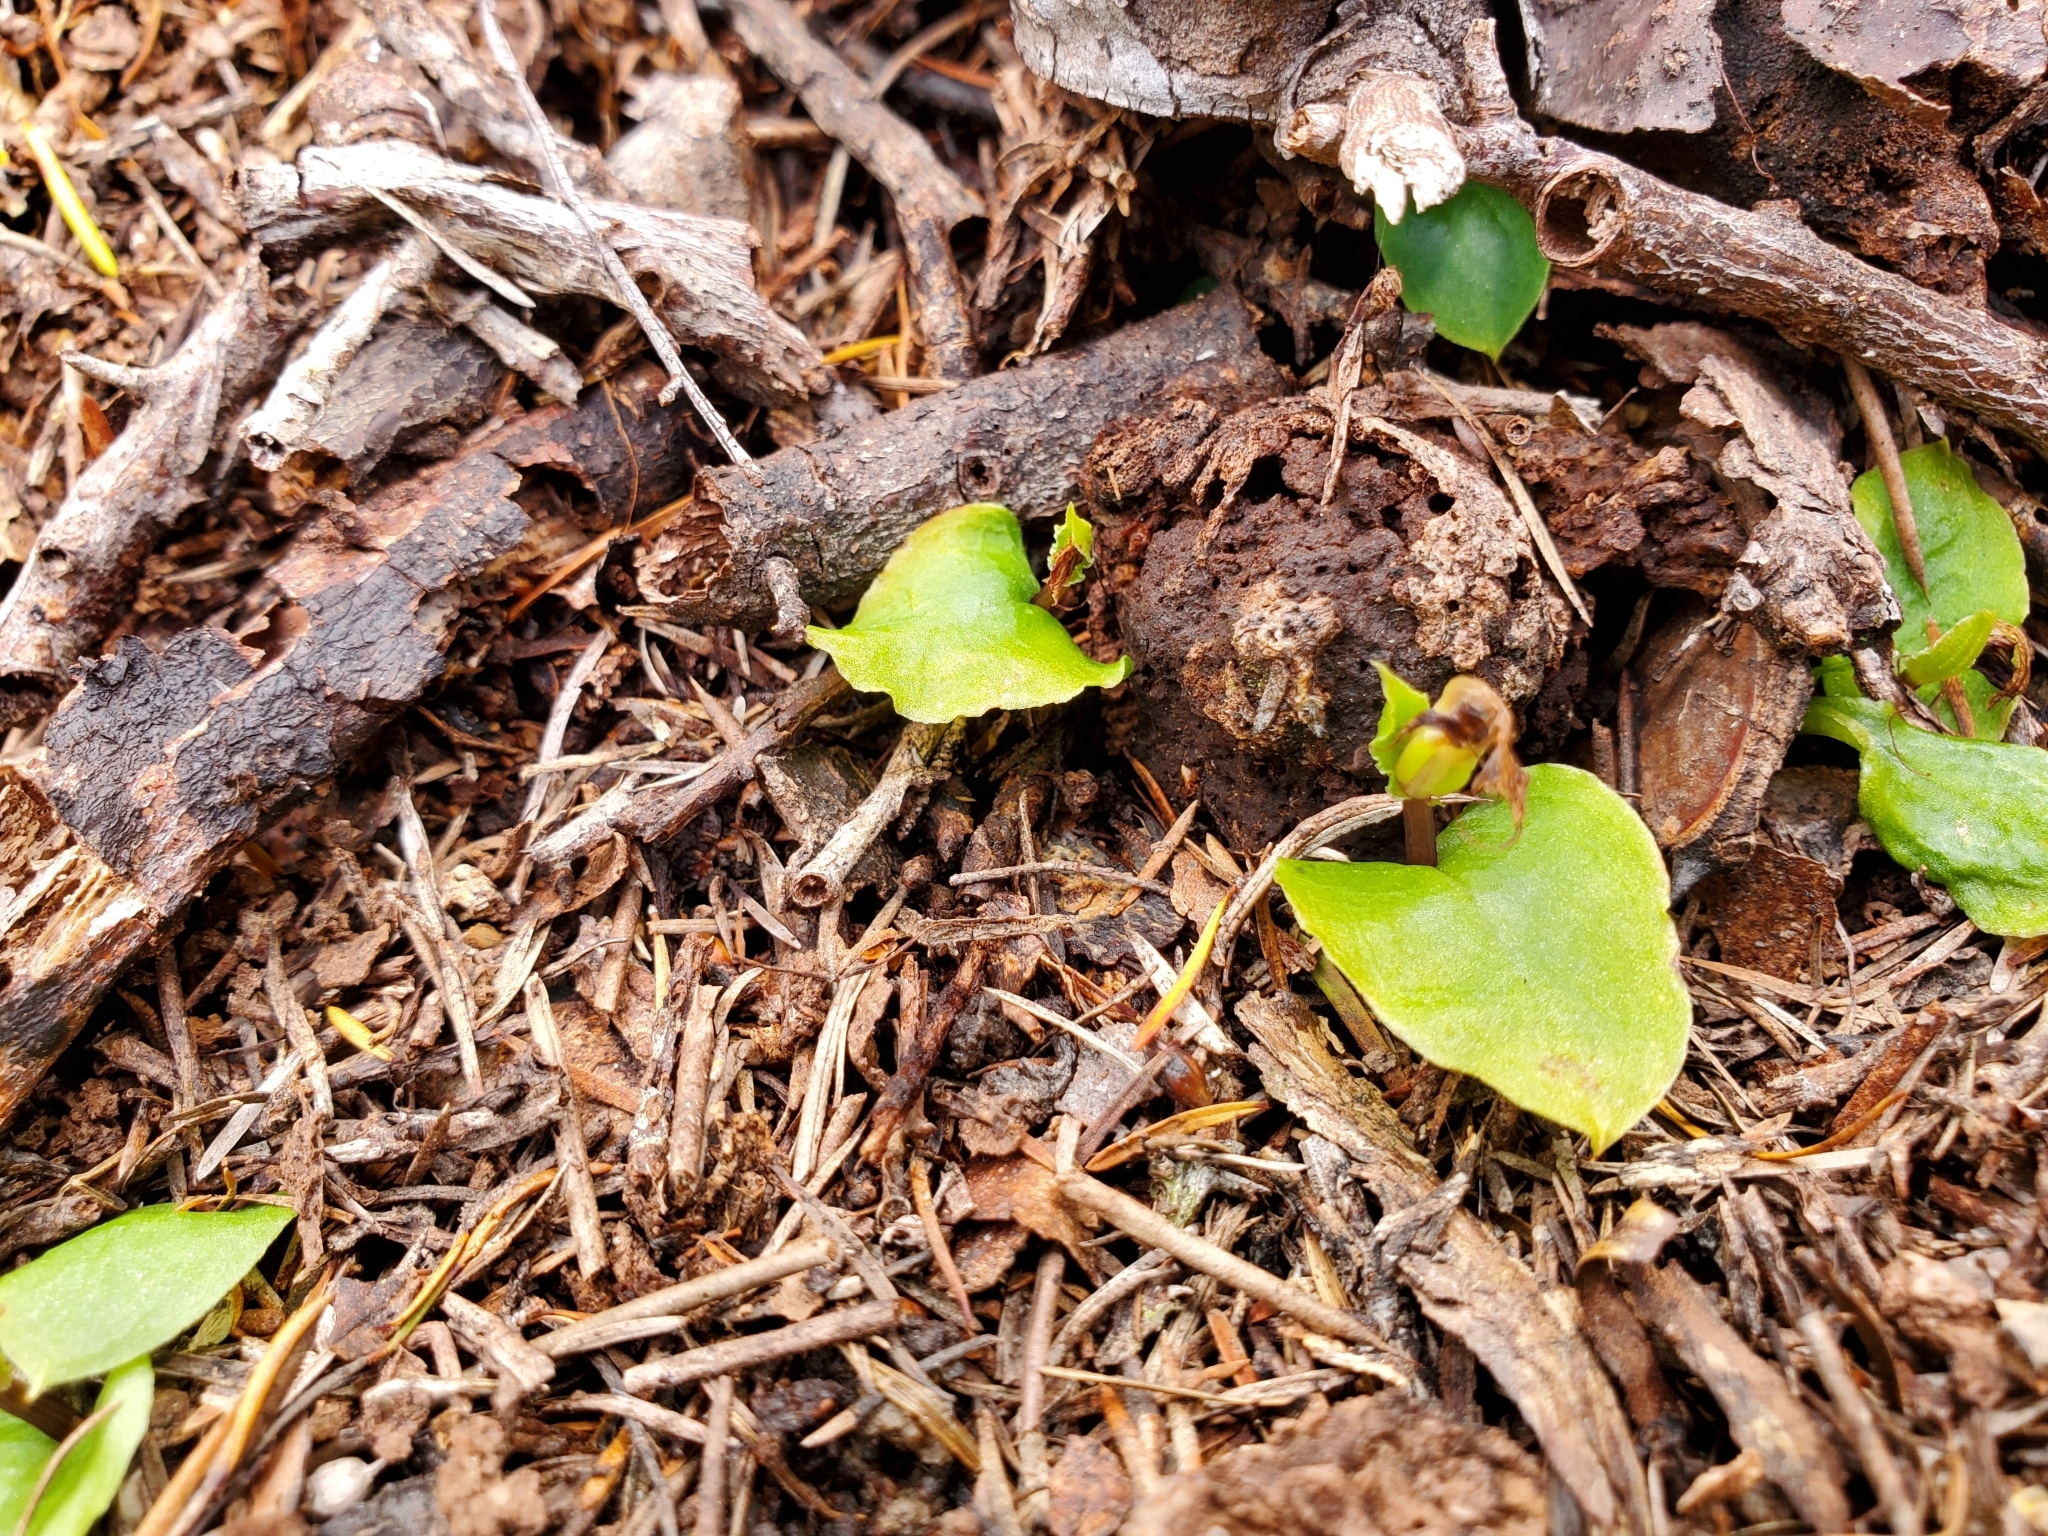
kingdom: Plantae
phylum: Tracheophyta
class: Liliopsida
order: Asparagales
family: Orchidaceae
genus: Corybas
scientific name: Corybas oblongus
